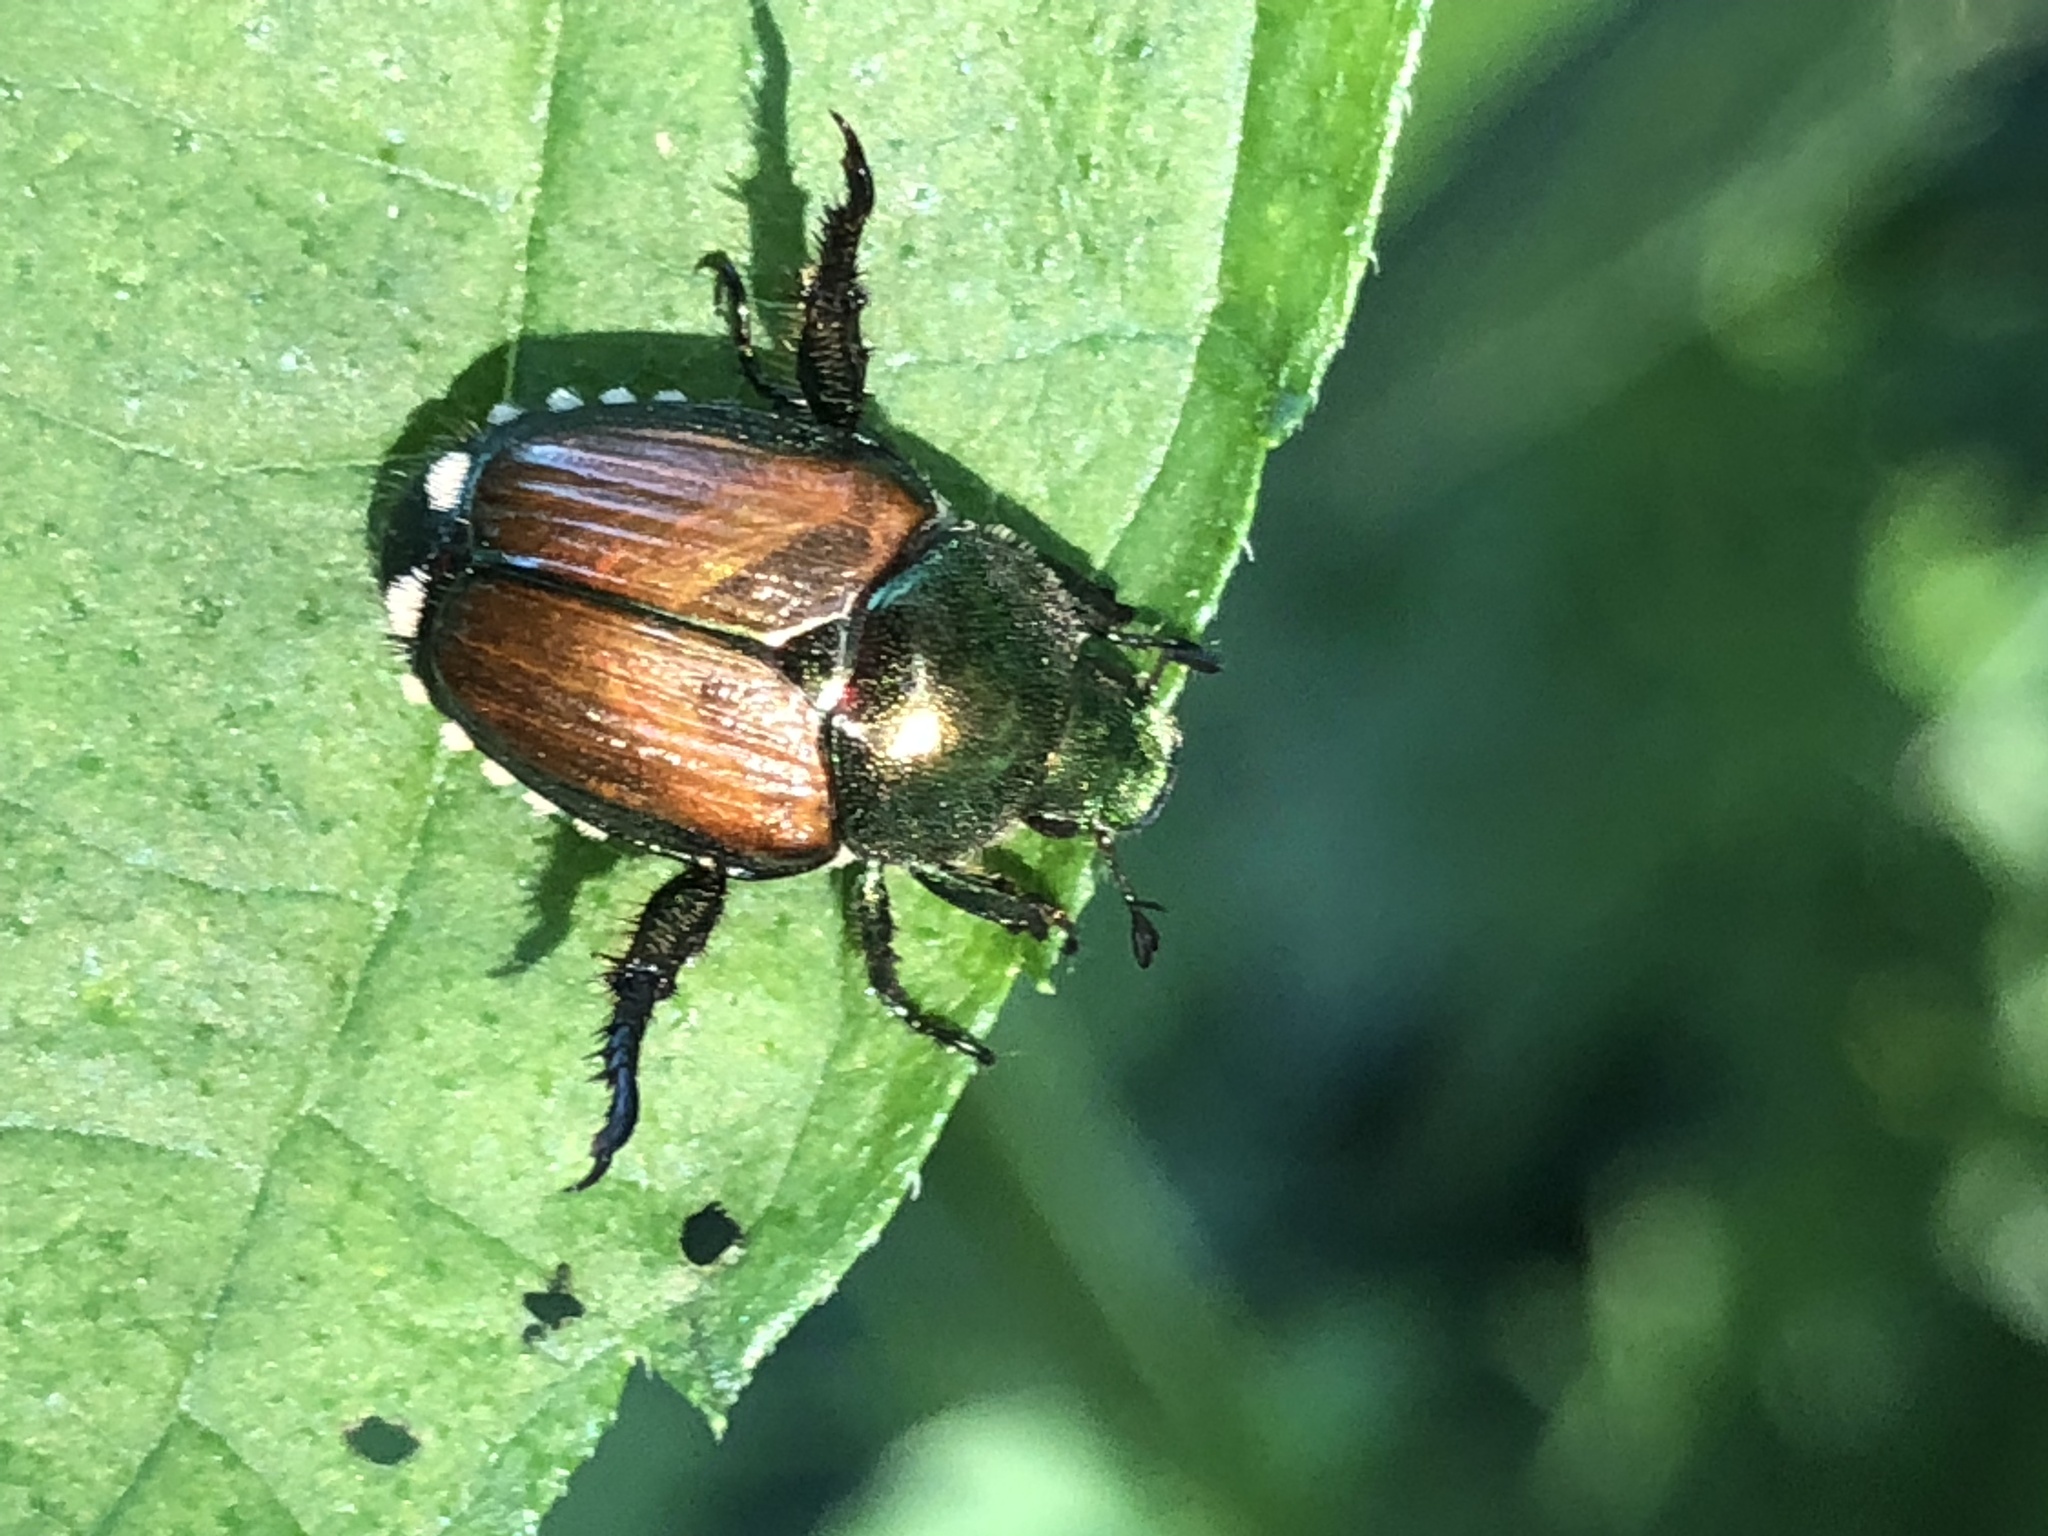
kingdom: Animalia
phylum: Arthropoda
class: Insecta
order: Coleoptera
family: Scarabaeidae
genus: Popillia
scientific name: Popillia japonica
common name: Japanese beetle
